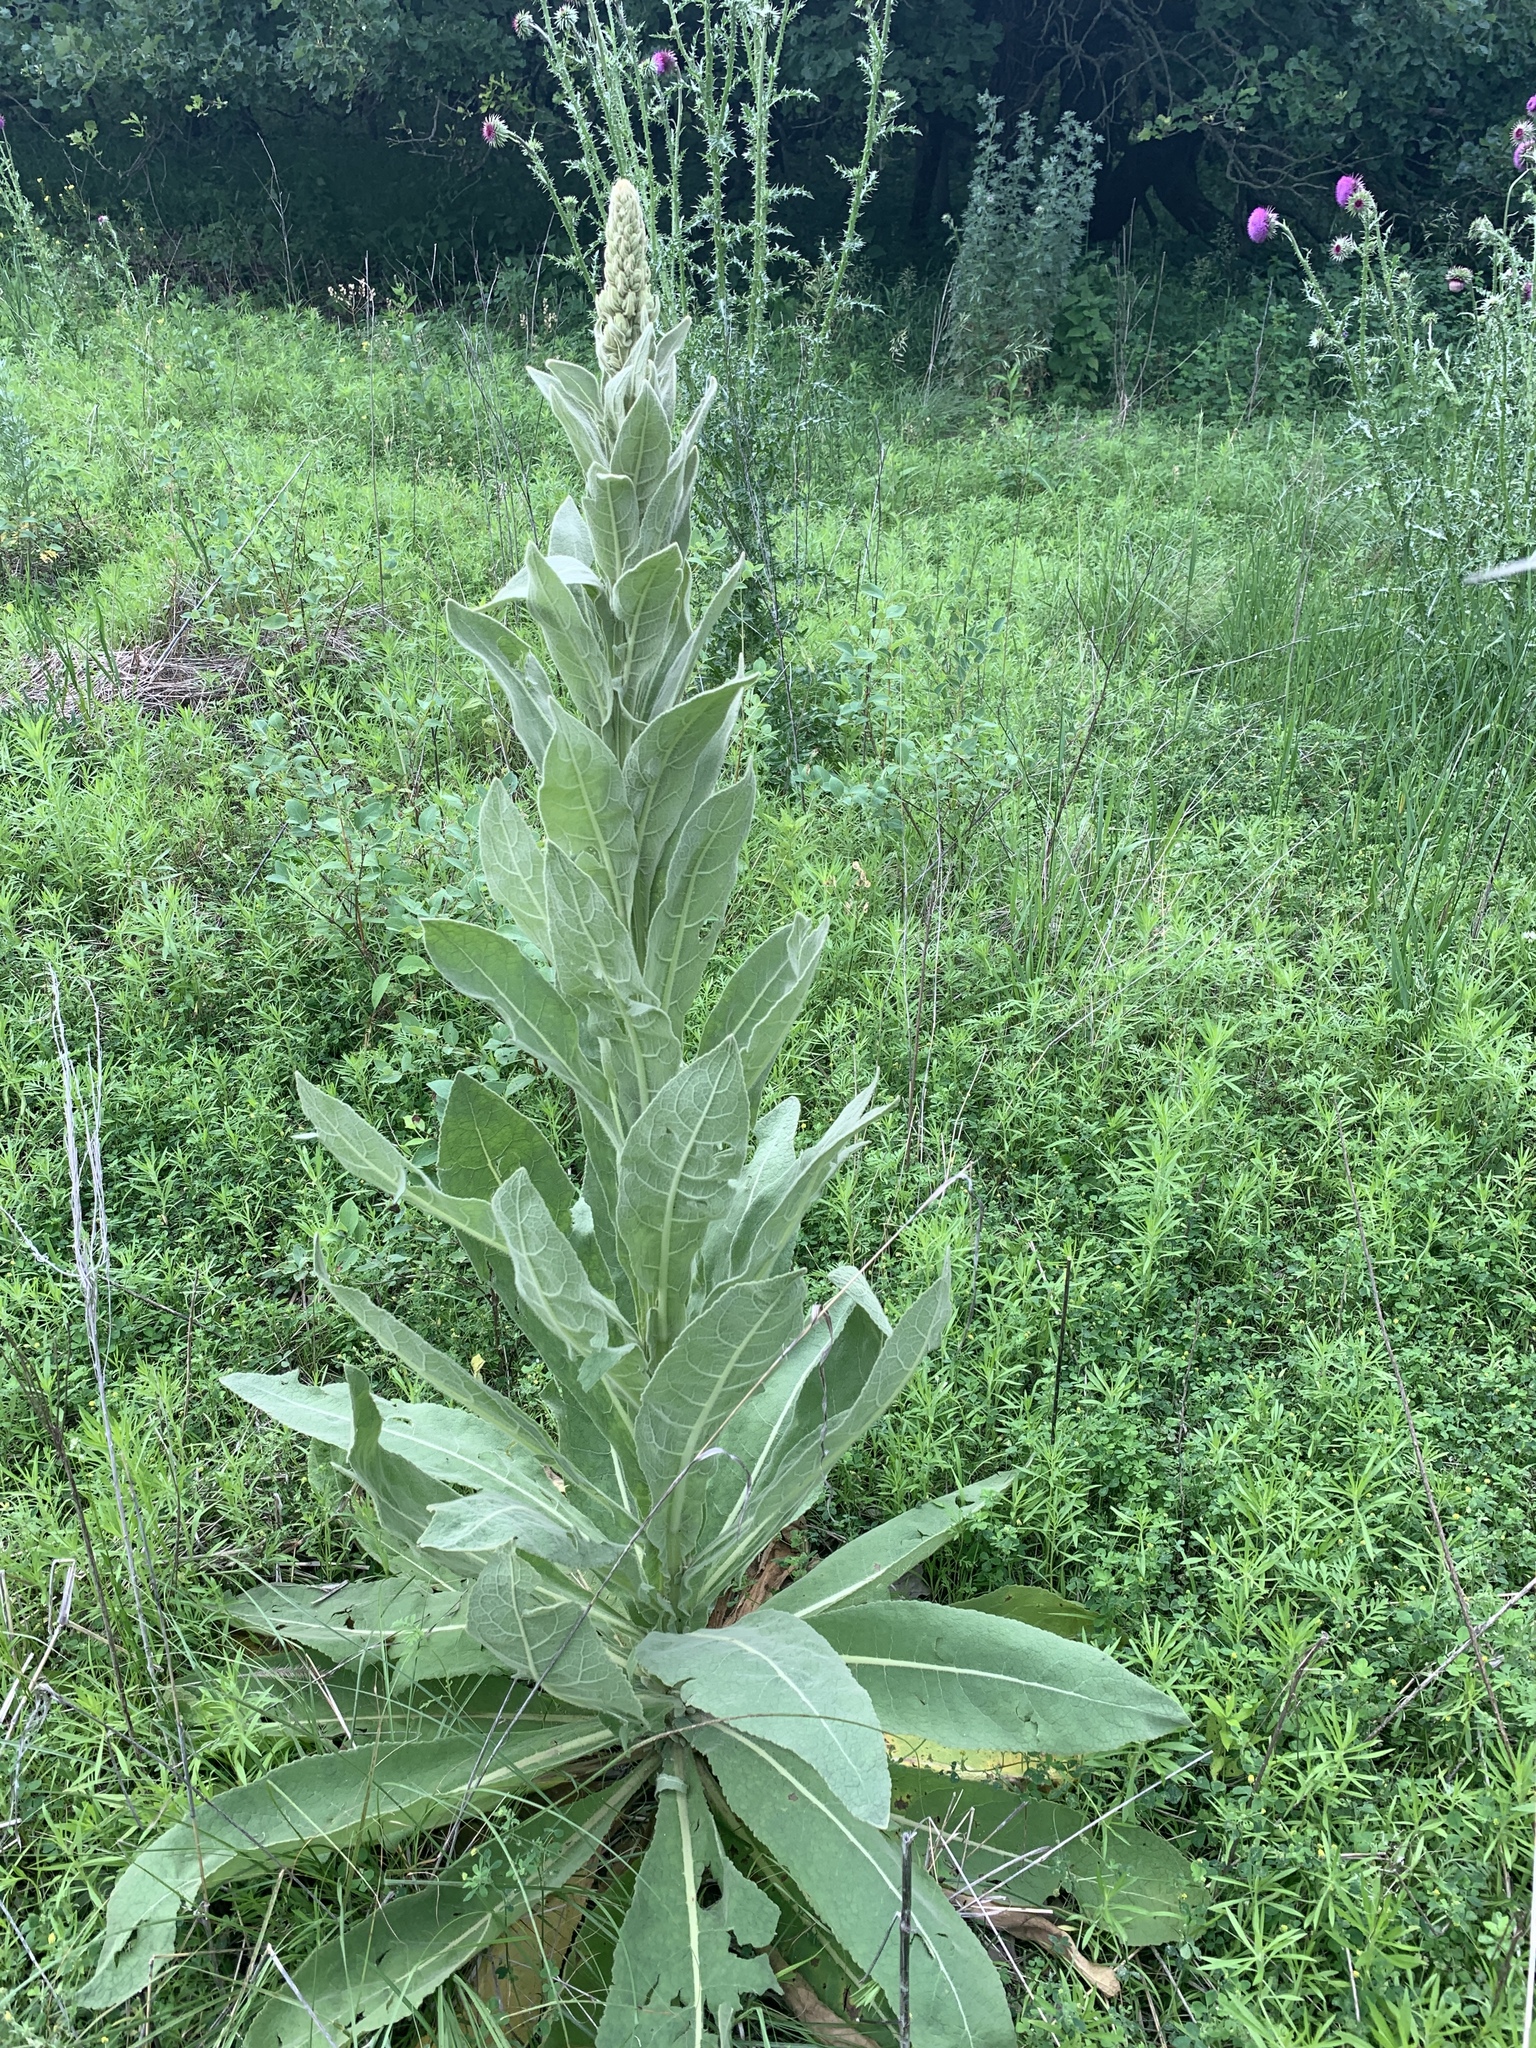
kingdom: Plantae
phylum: Tracheophyta
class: Magnoliopsida
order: Lamiales
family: Scrophulariaceae
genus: Verbascum
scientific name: Verbascum thapsus
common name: Common mullein
